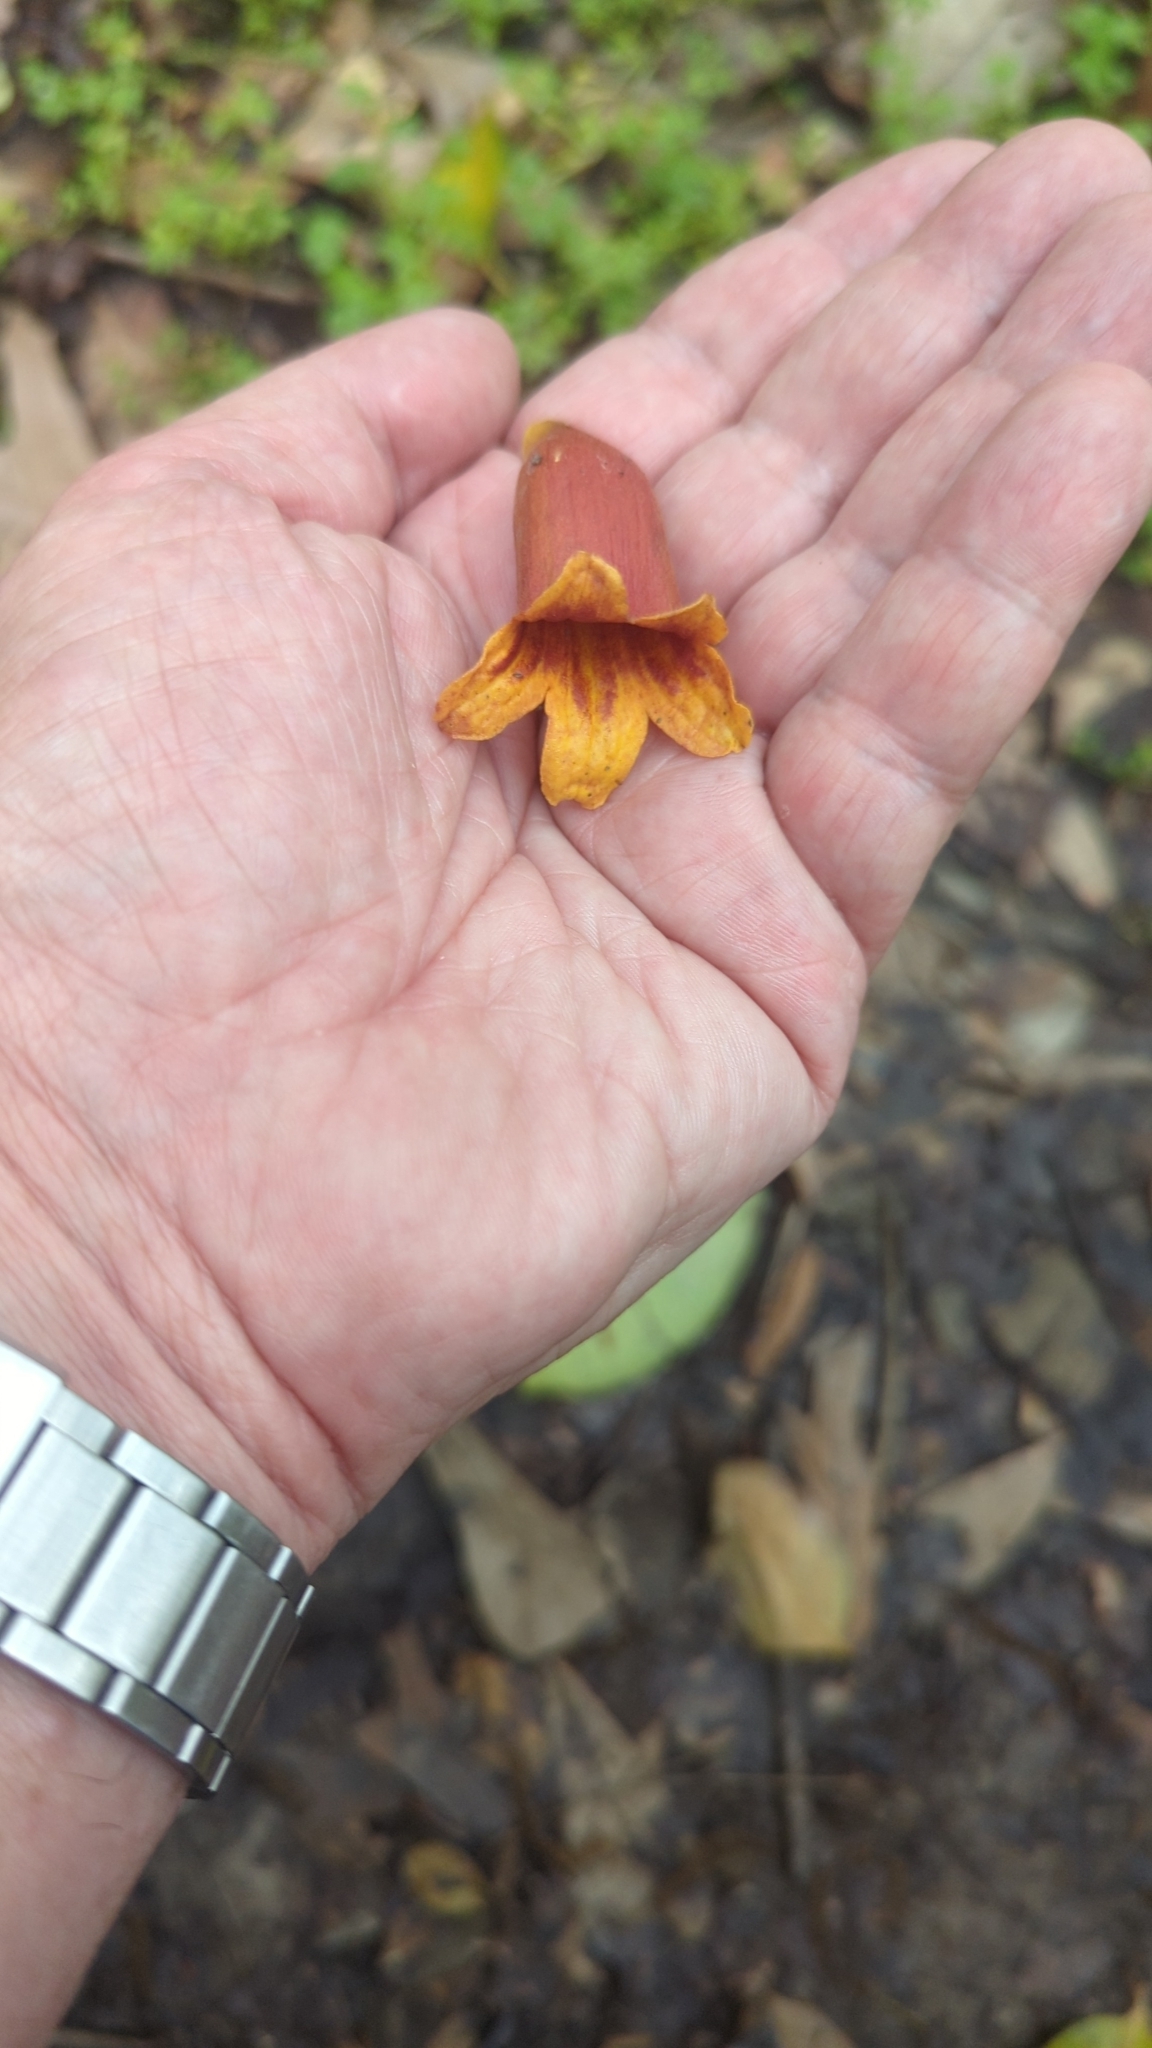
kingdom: Plantae
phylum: Tracheophyta
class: Magnoliopsida
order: Lamiales
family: Bignoniaceae
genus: Bignonia
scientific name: Bignonia capreolata
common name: Crossvine
